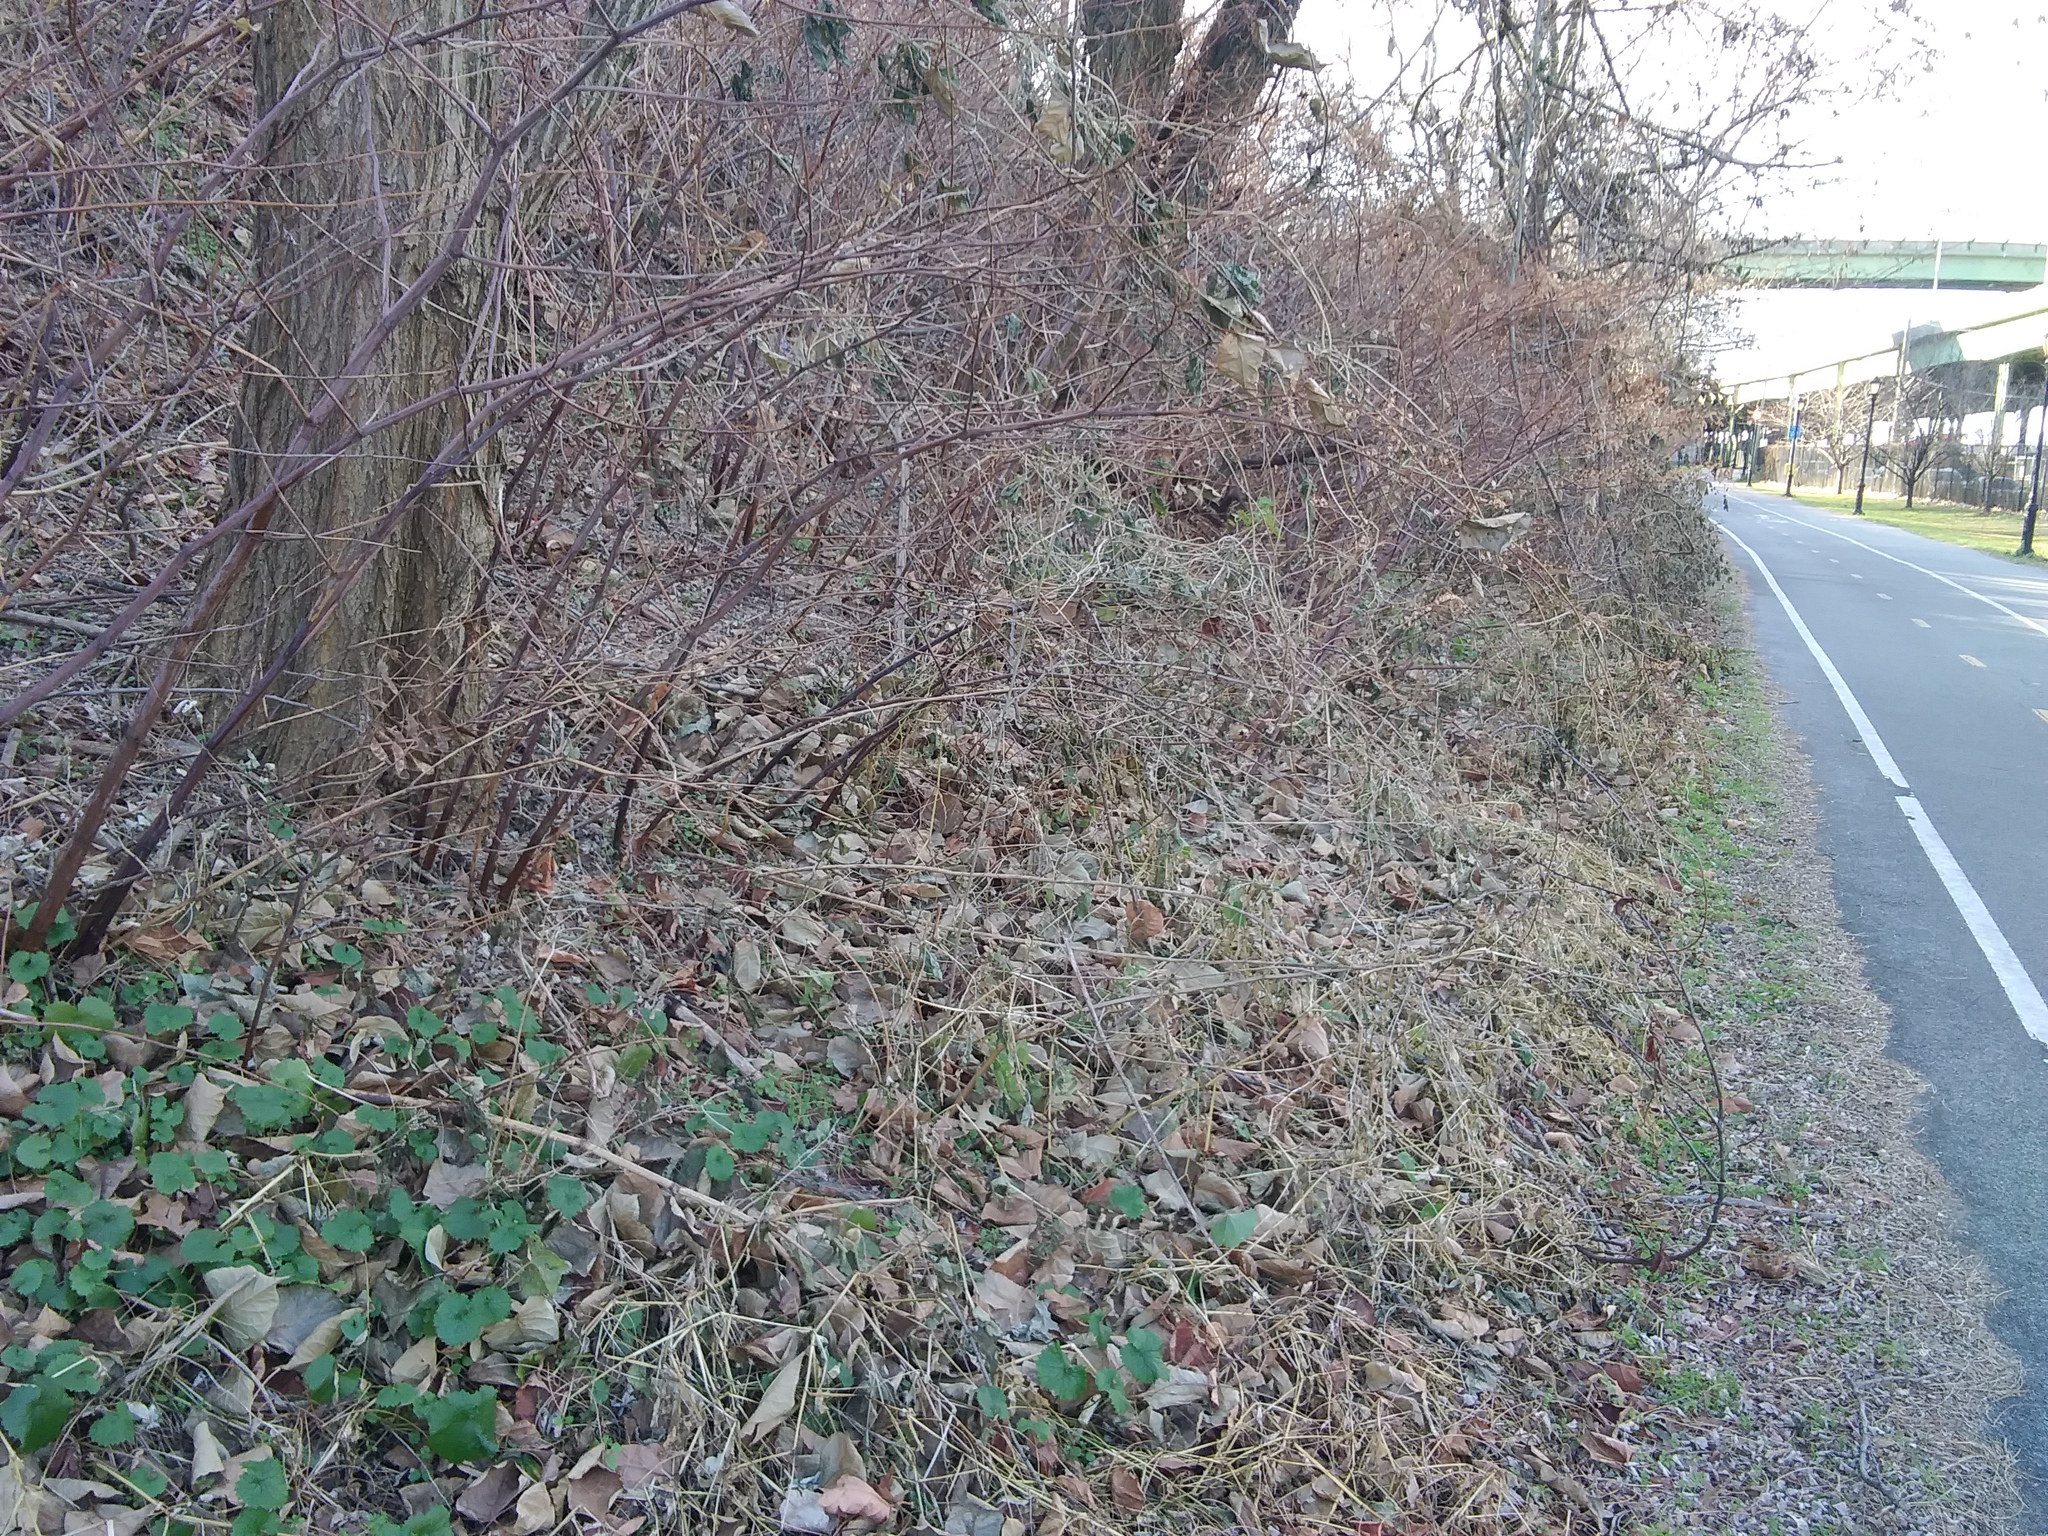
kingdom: Plantae
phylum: Tracheophyta
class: Magnoliopsida
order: Caryophyllales
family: Polygonaceae
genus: Reynoutria
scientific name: Reynoutria japonica
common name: Japanese knotweed
